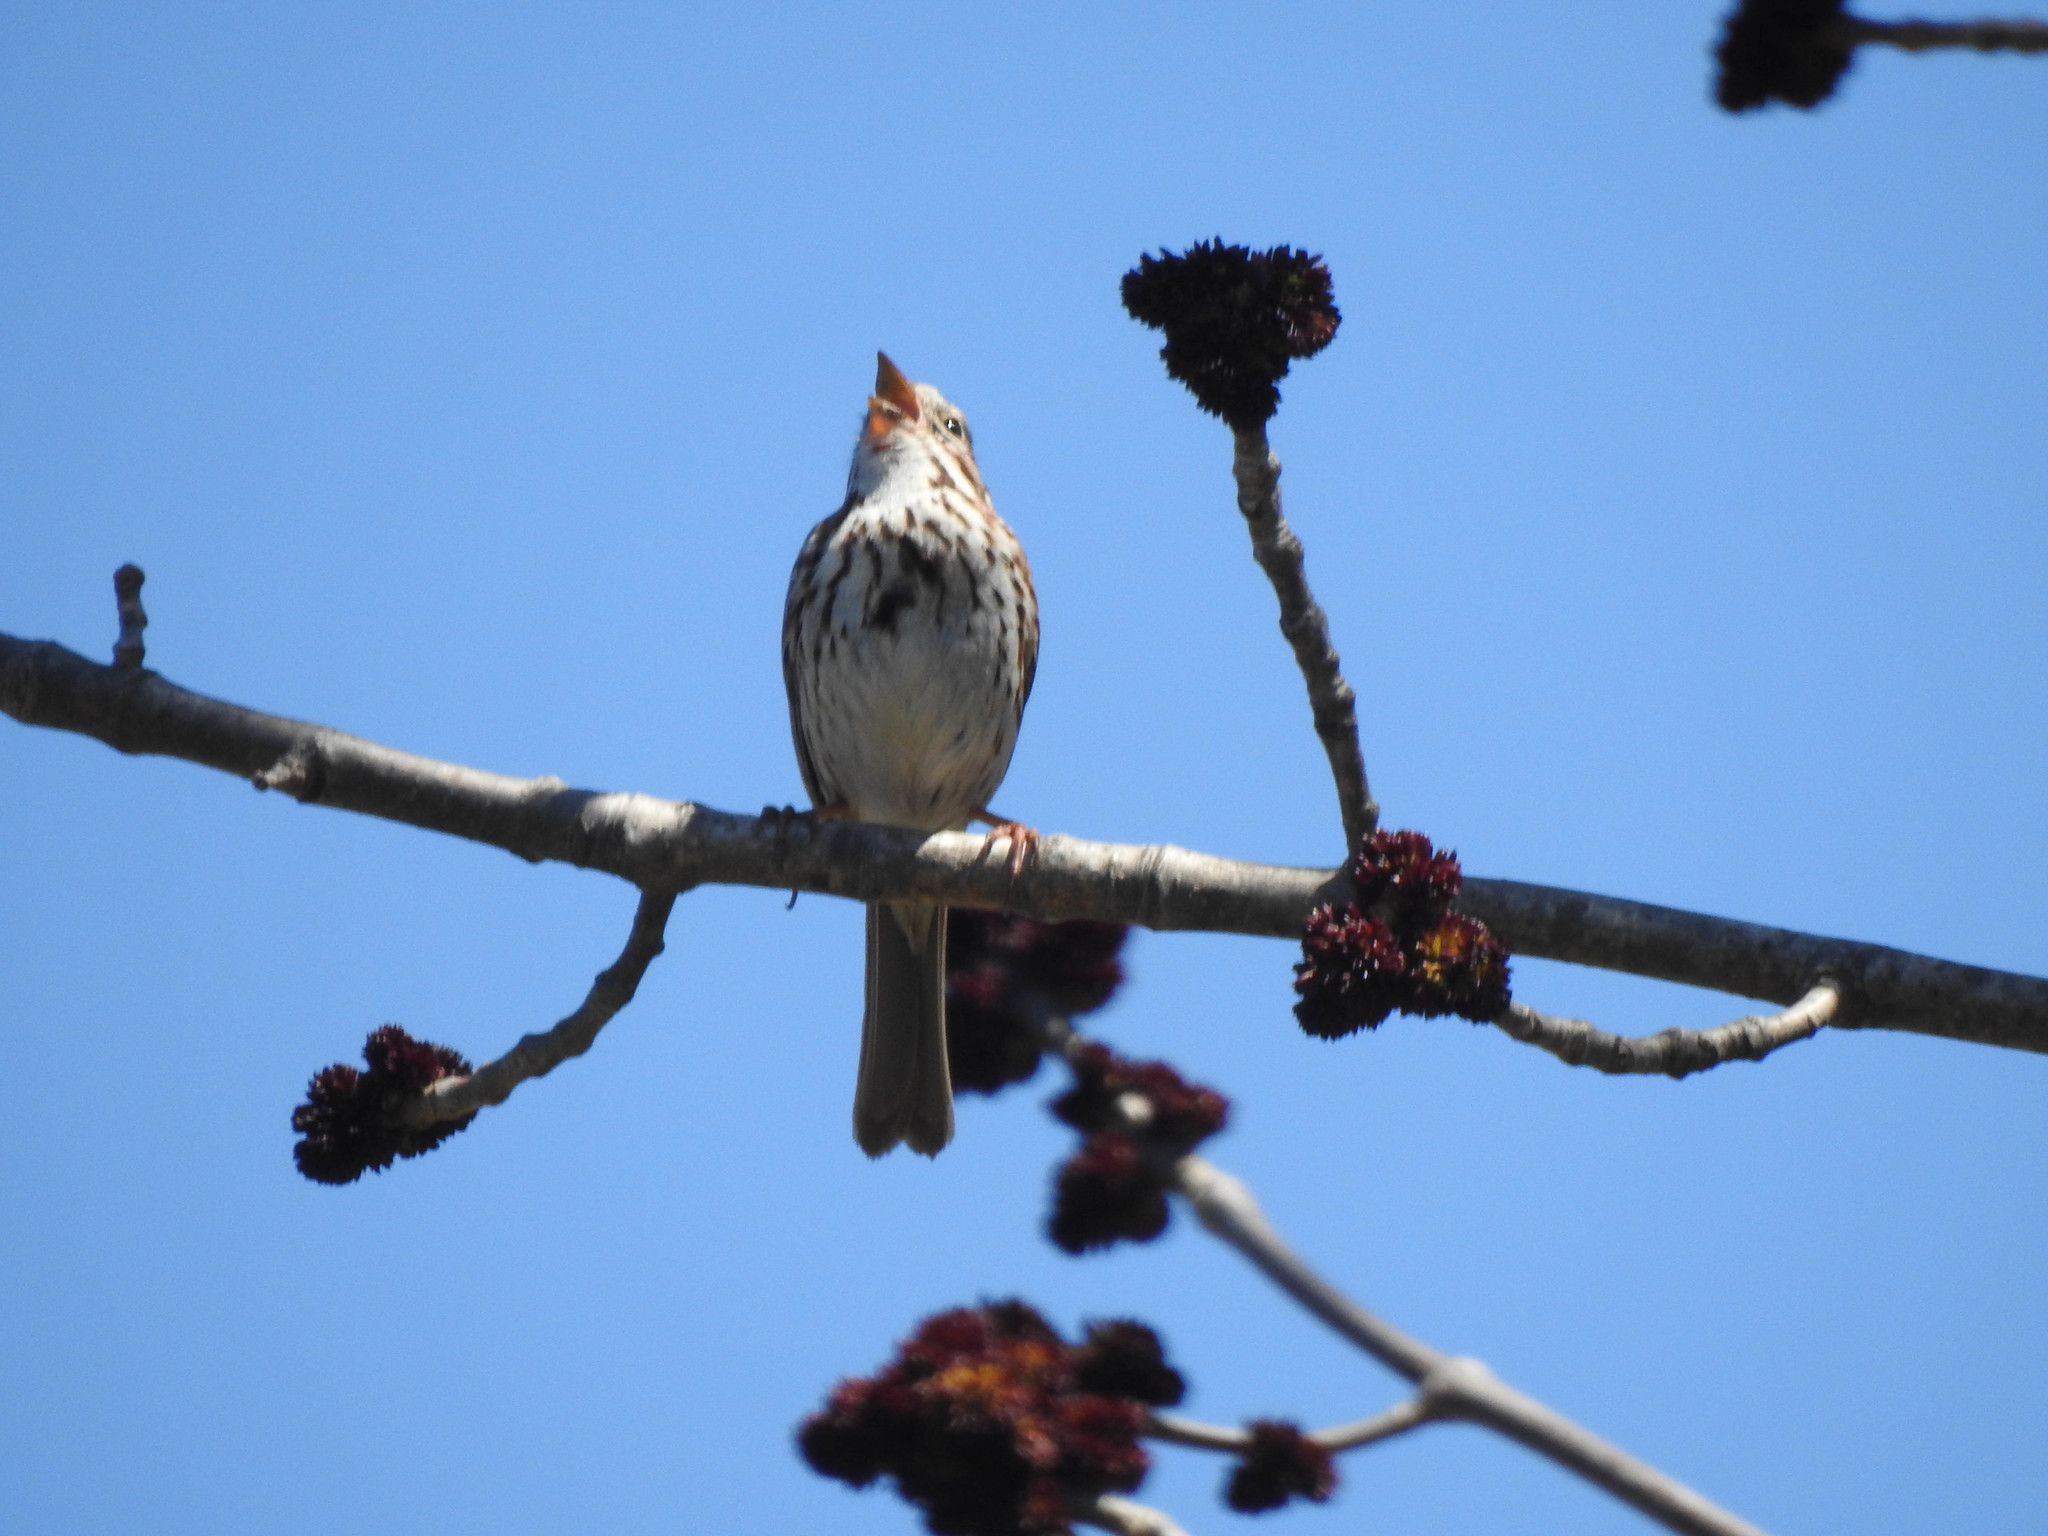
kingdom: Animalia
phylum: Chordata
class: Aves
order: Passeriformes
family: Passerellidae
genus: Passerculus
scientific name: Passerculus sandwichensis
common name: Savannah sparrow
